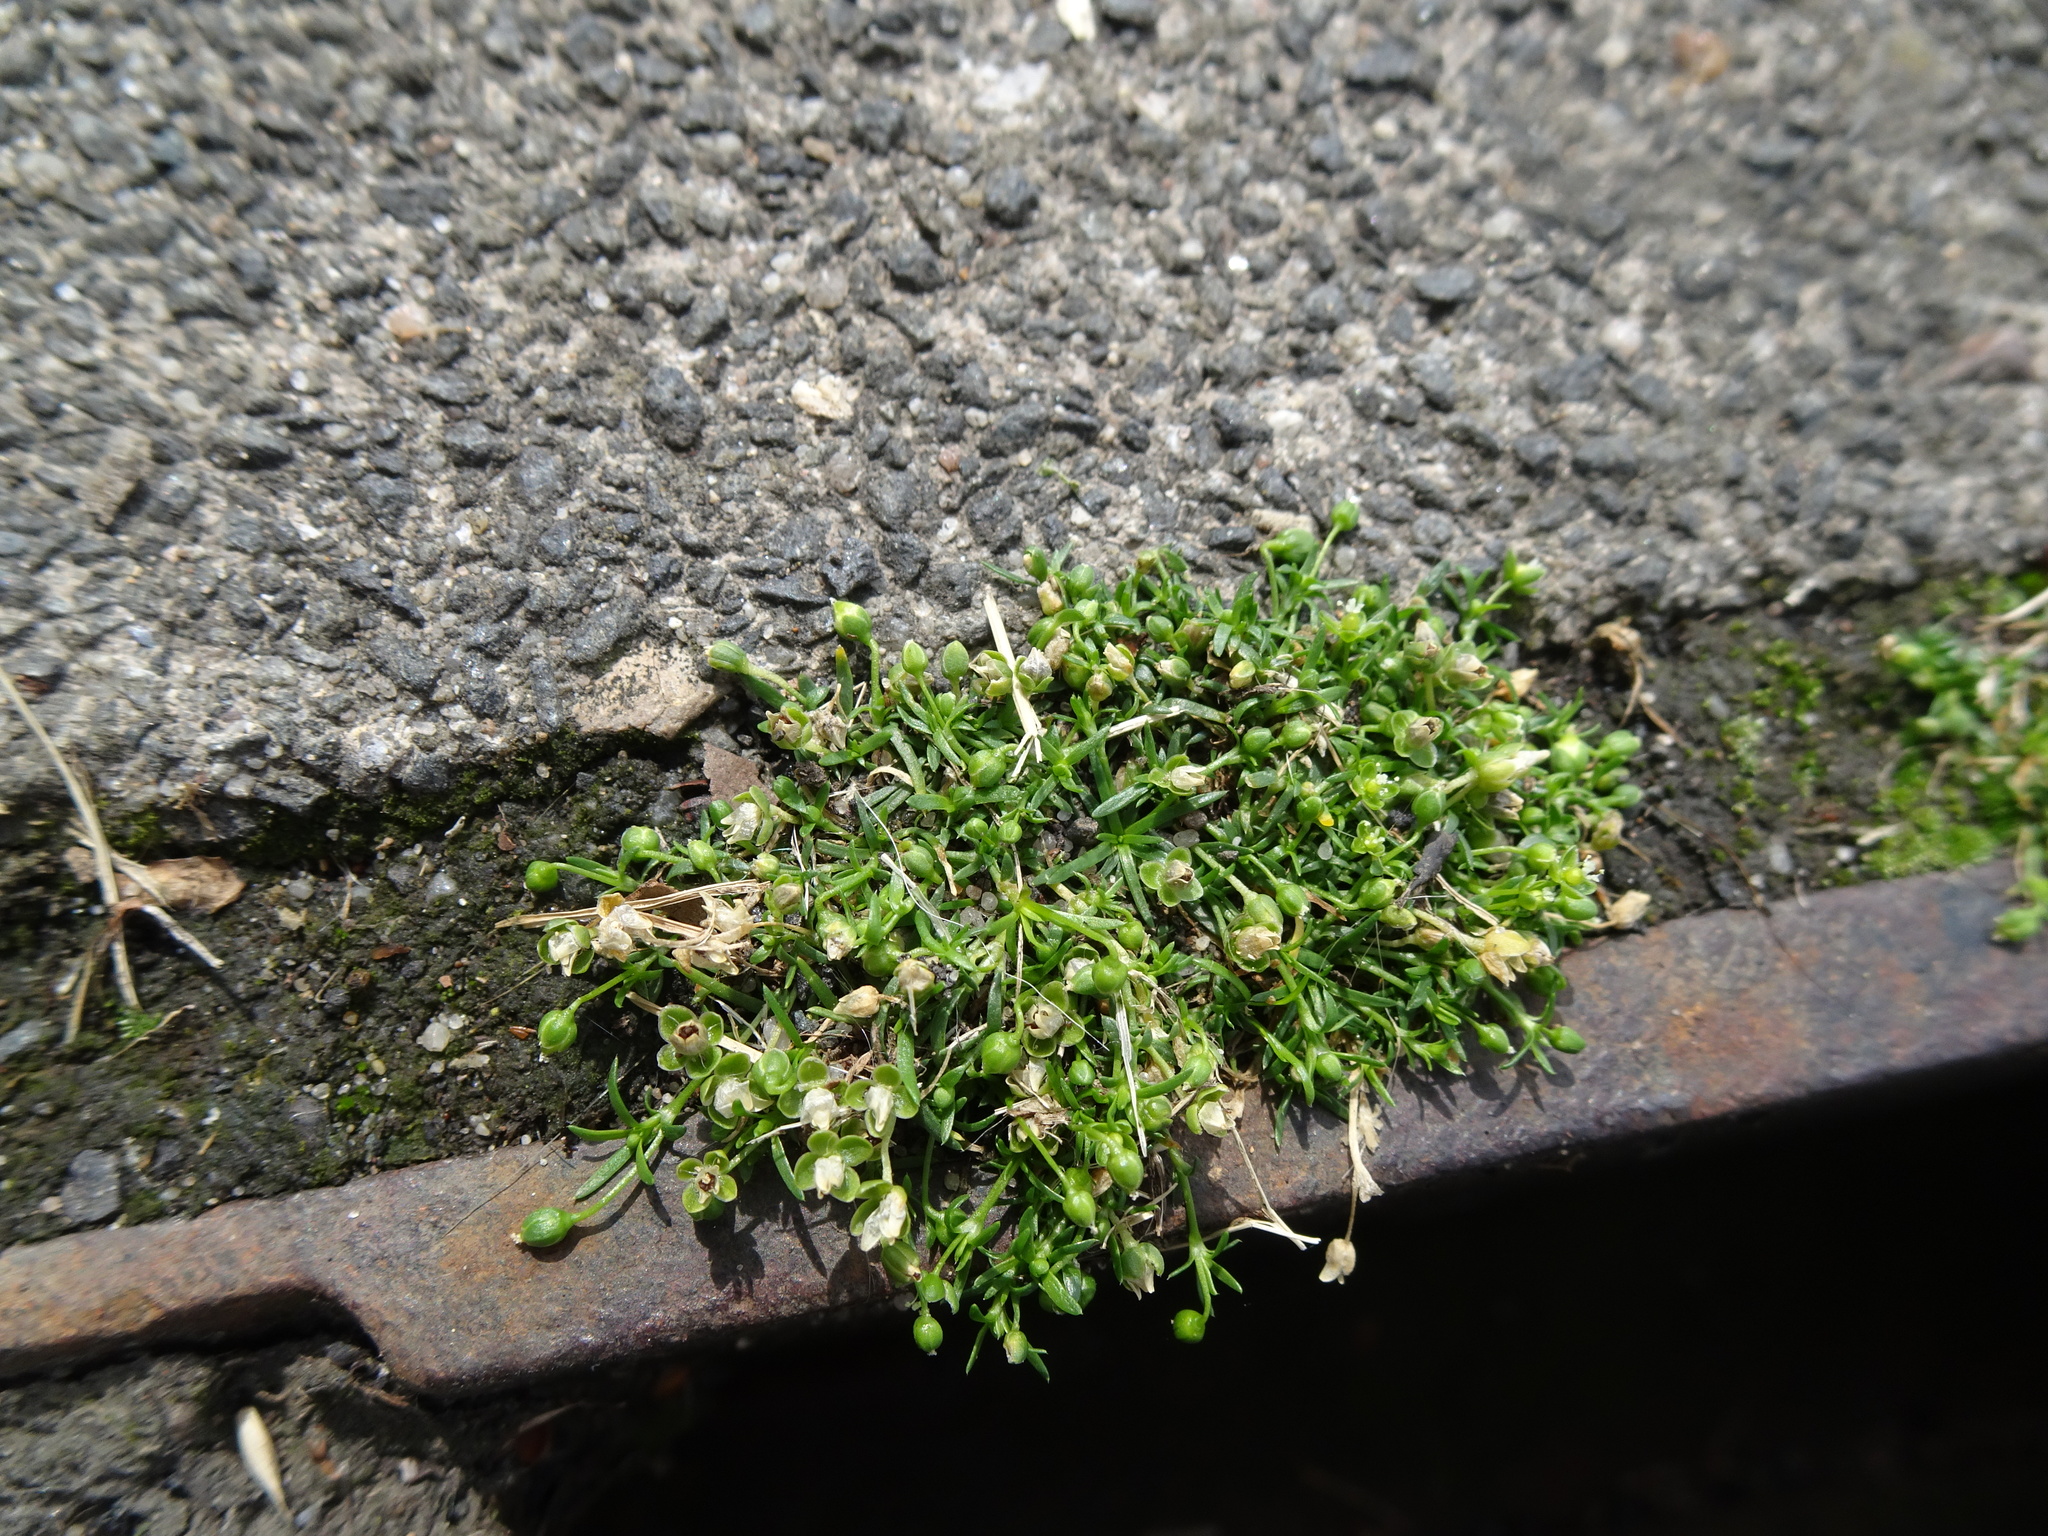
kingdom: Plantae
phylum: Tracheophyta
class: Magnoliopsida
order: Caryophyllales
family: Caryophyllaceae
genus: Sagina
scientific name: Sagina procumbens
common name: Procumbent pearlwort
